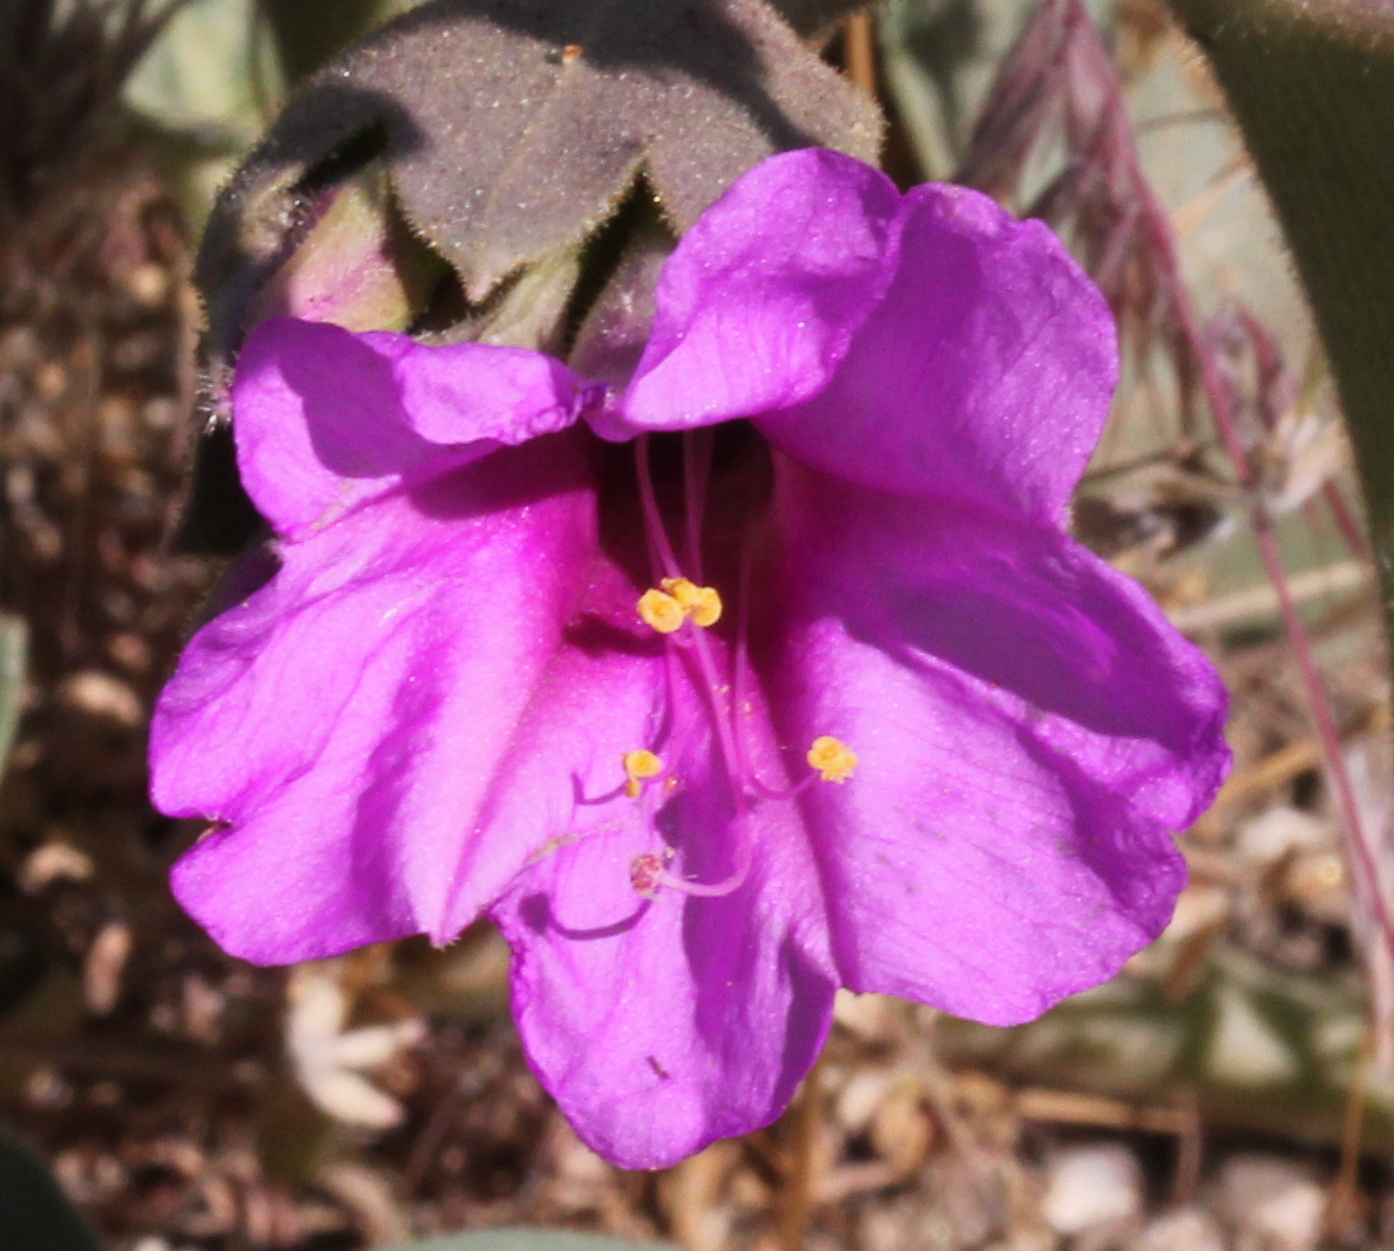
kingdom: Plantae
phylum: Tracheophyta
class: Magnoliopsida
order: Caryophyllales
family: Nyctaginaceae
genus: Mirabilis
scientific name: Mirabilis multiflora
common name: Froebel's four-o'clock
